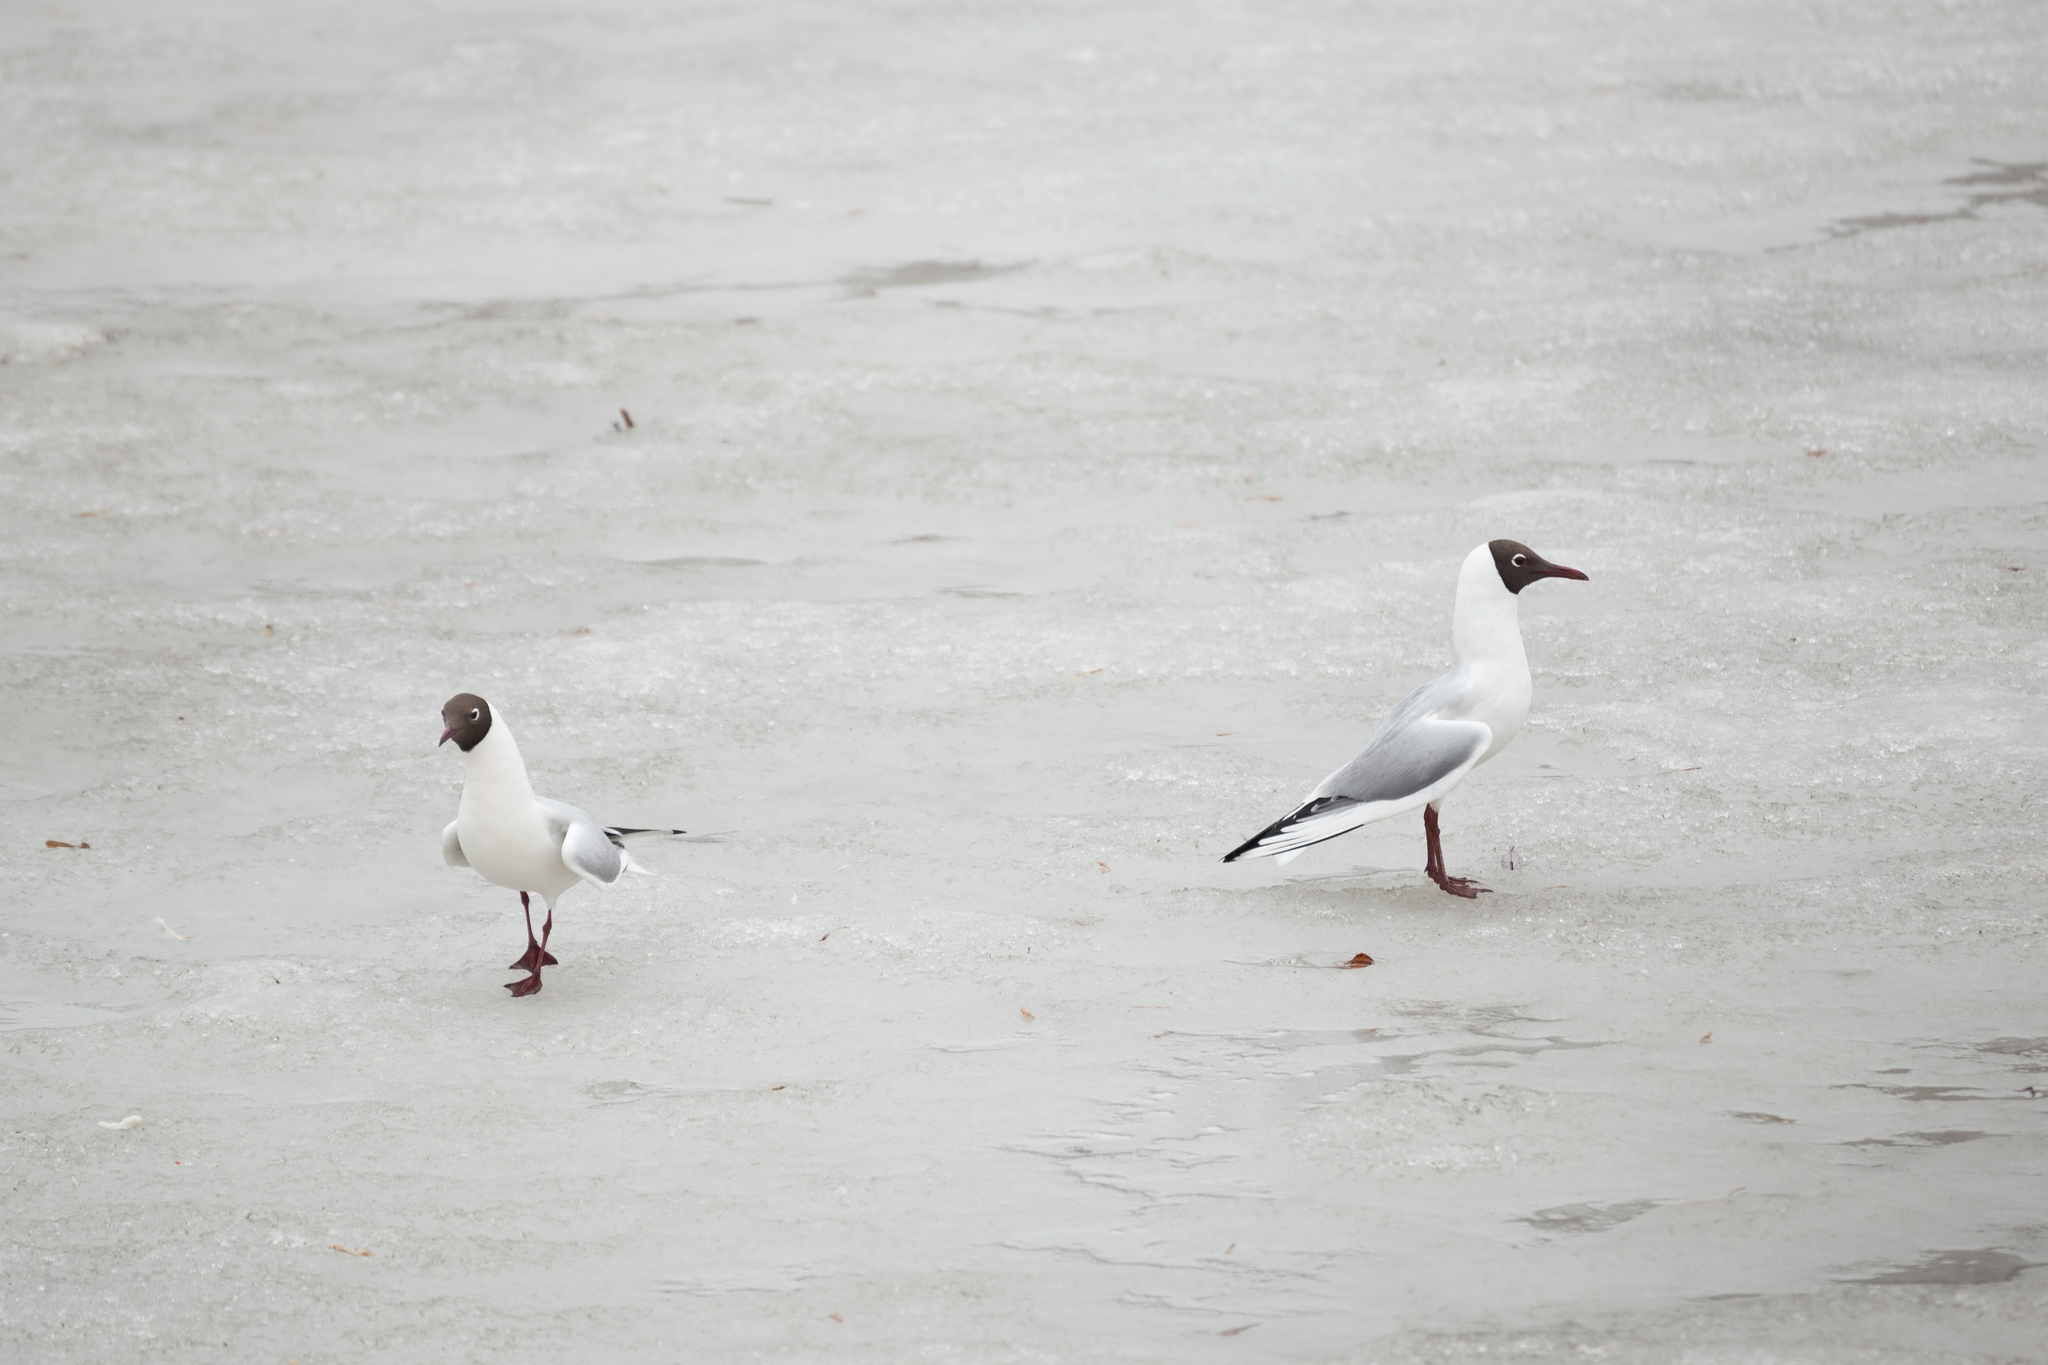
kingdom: Animalia
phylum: Chordata
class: Aves
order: Charadriiformes
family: Laridae
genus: Chroicocephalus
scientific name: Chroicocephalus ridibundus
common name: Black-headed gull
